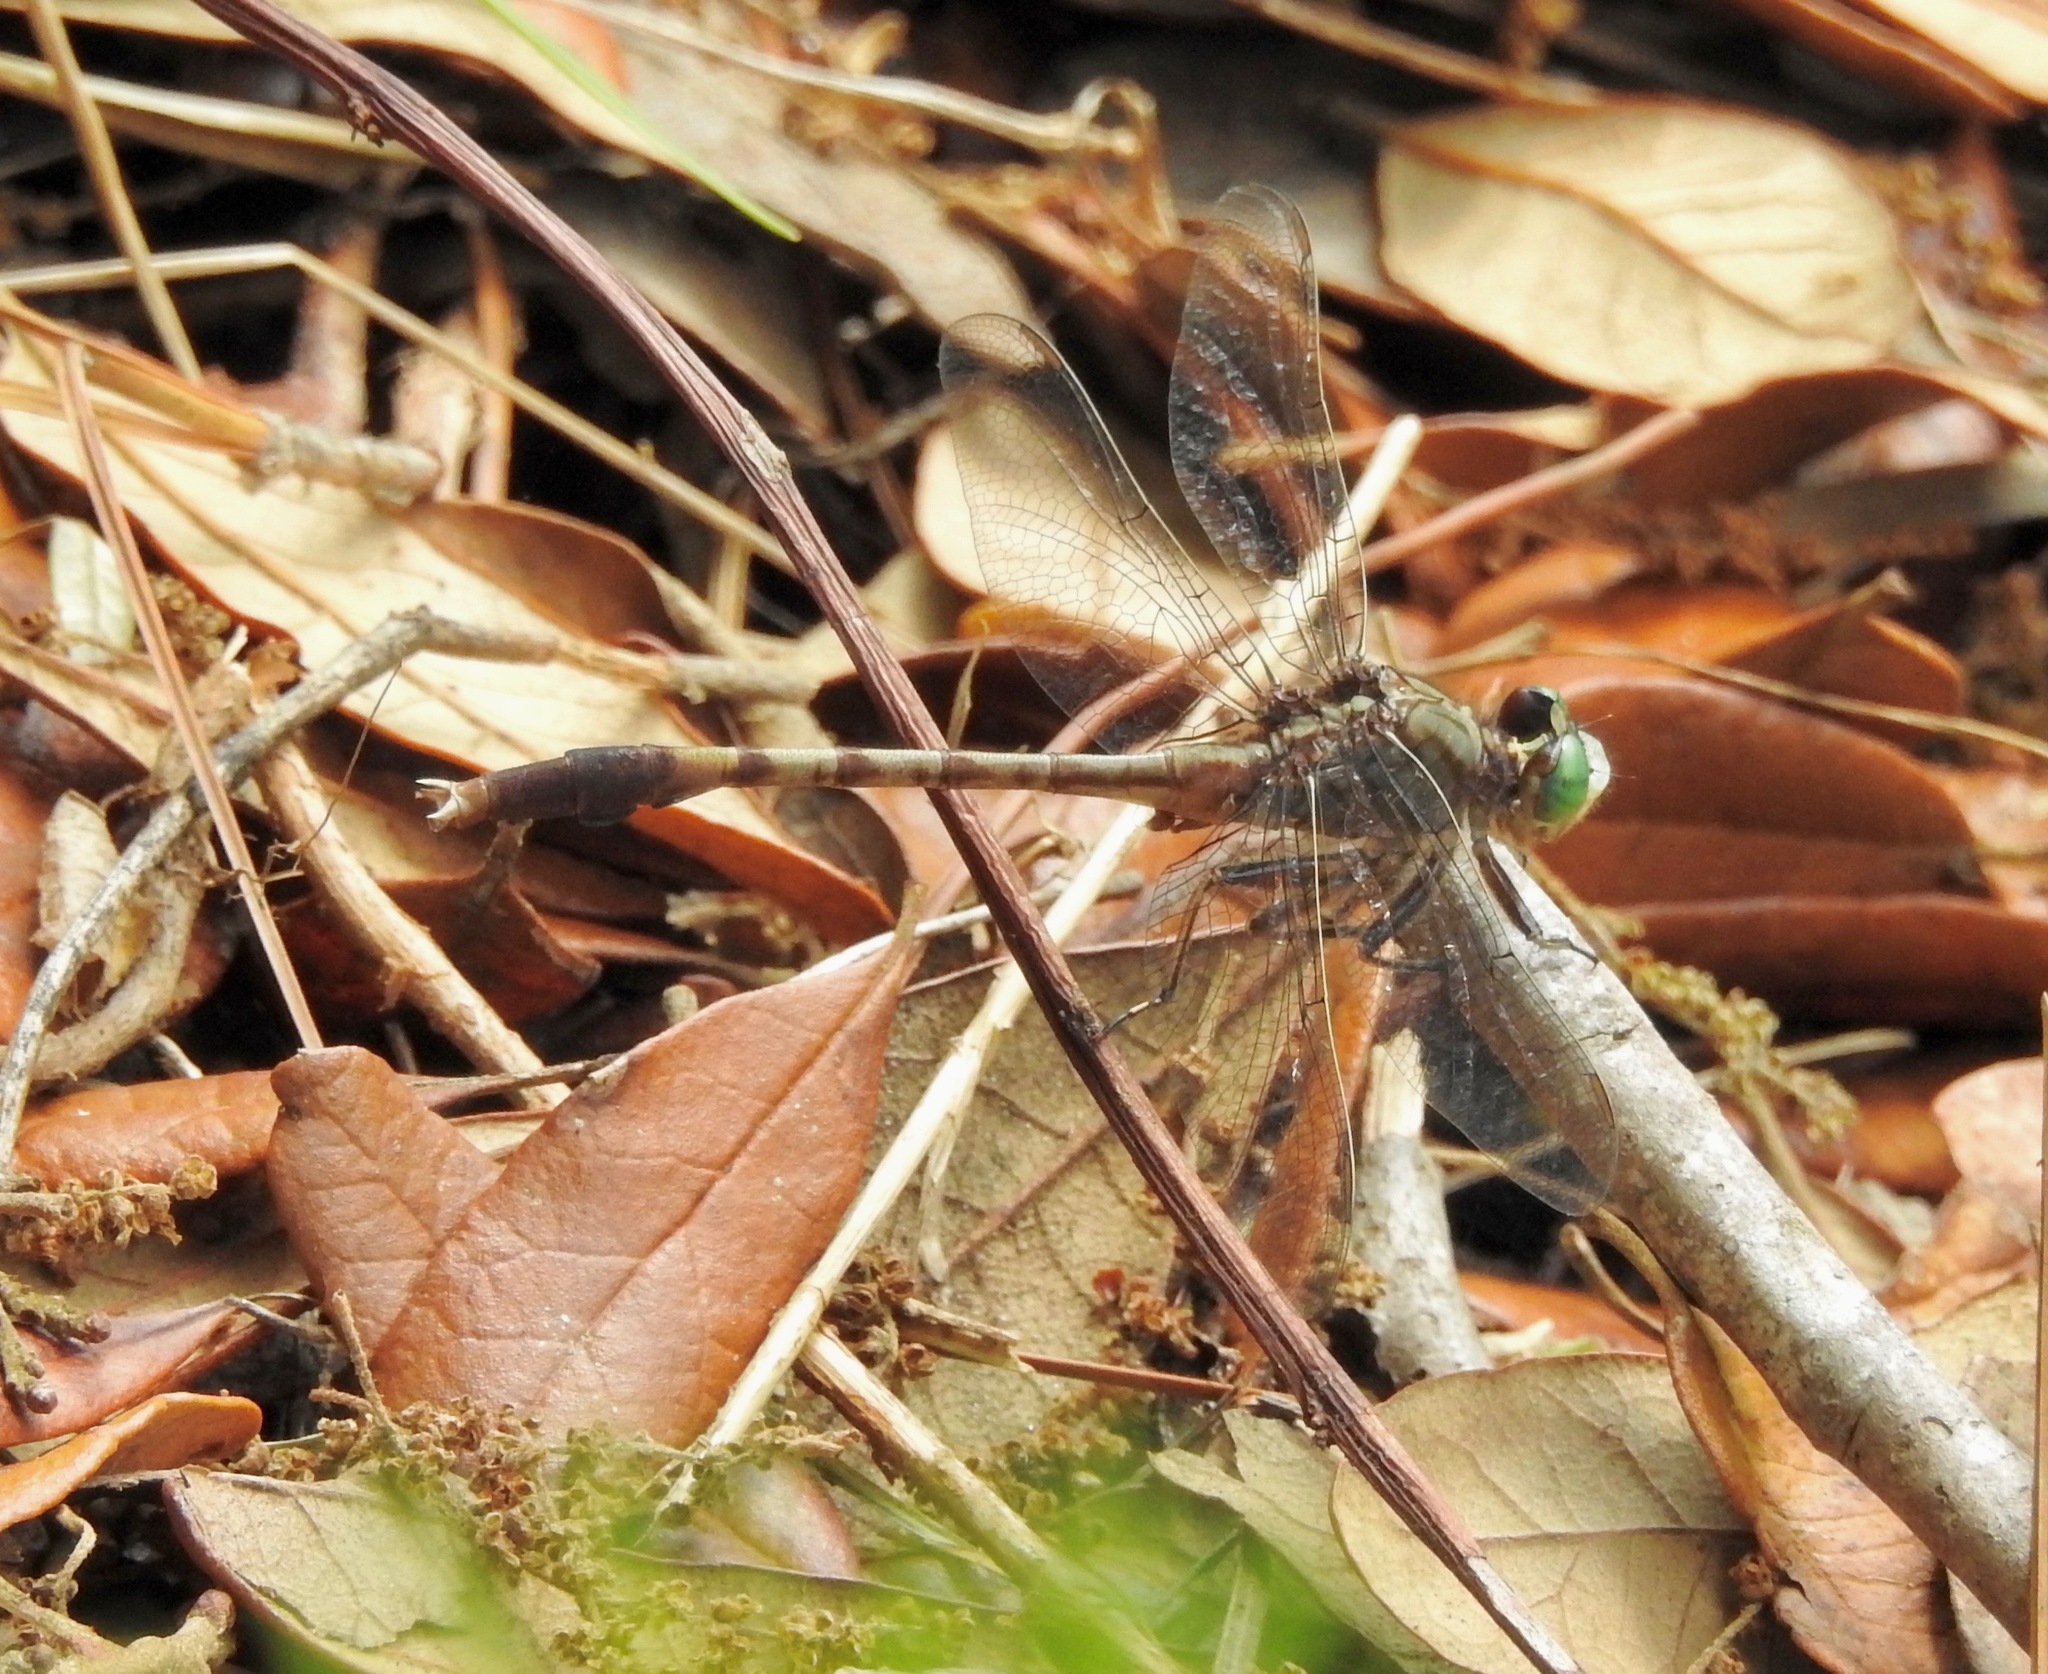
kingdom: Animalia
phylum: Arthropoda
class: Insecta
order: Odonata
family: Gomphidae
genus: Arigomphus
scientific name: Arigomphus pallidus
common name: Gray-green clubtail
